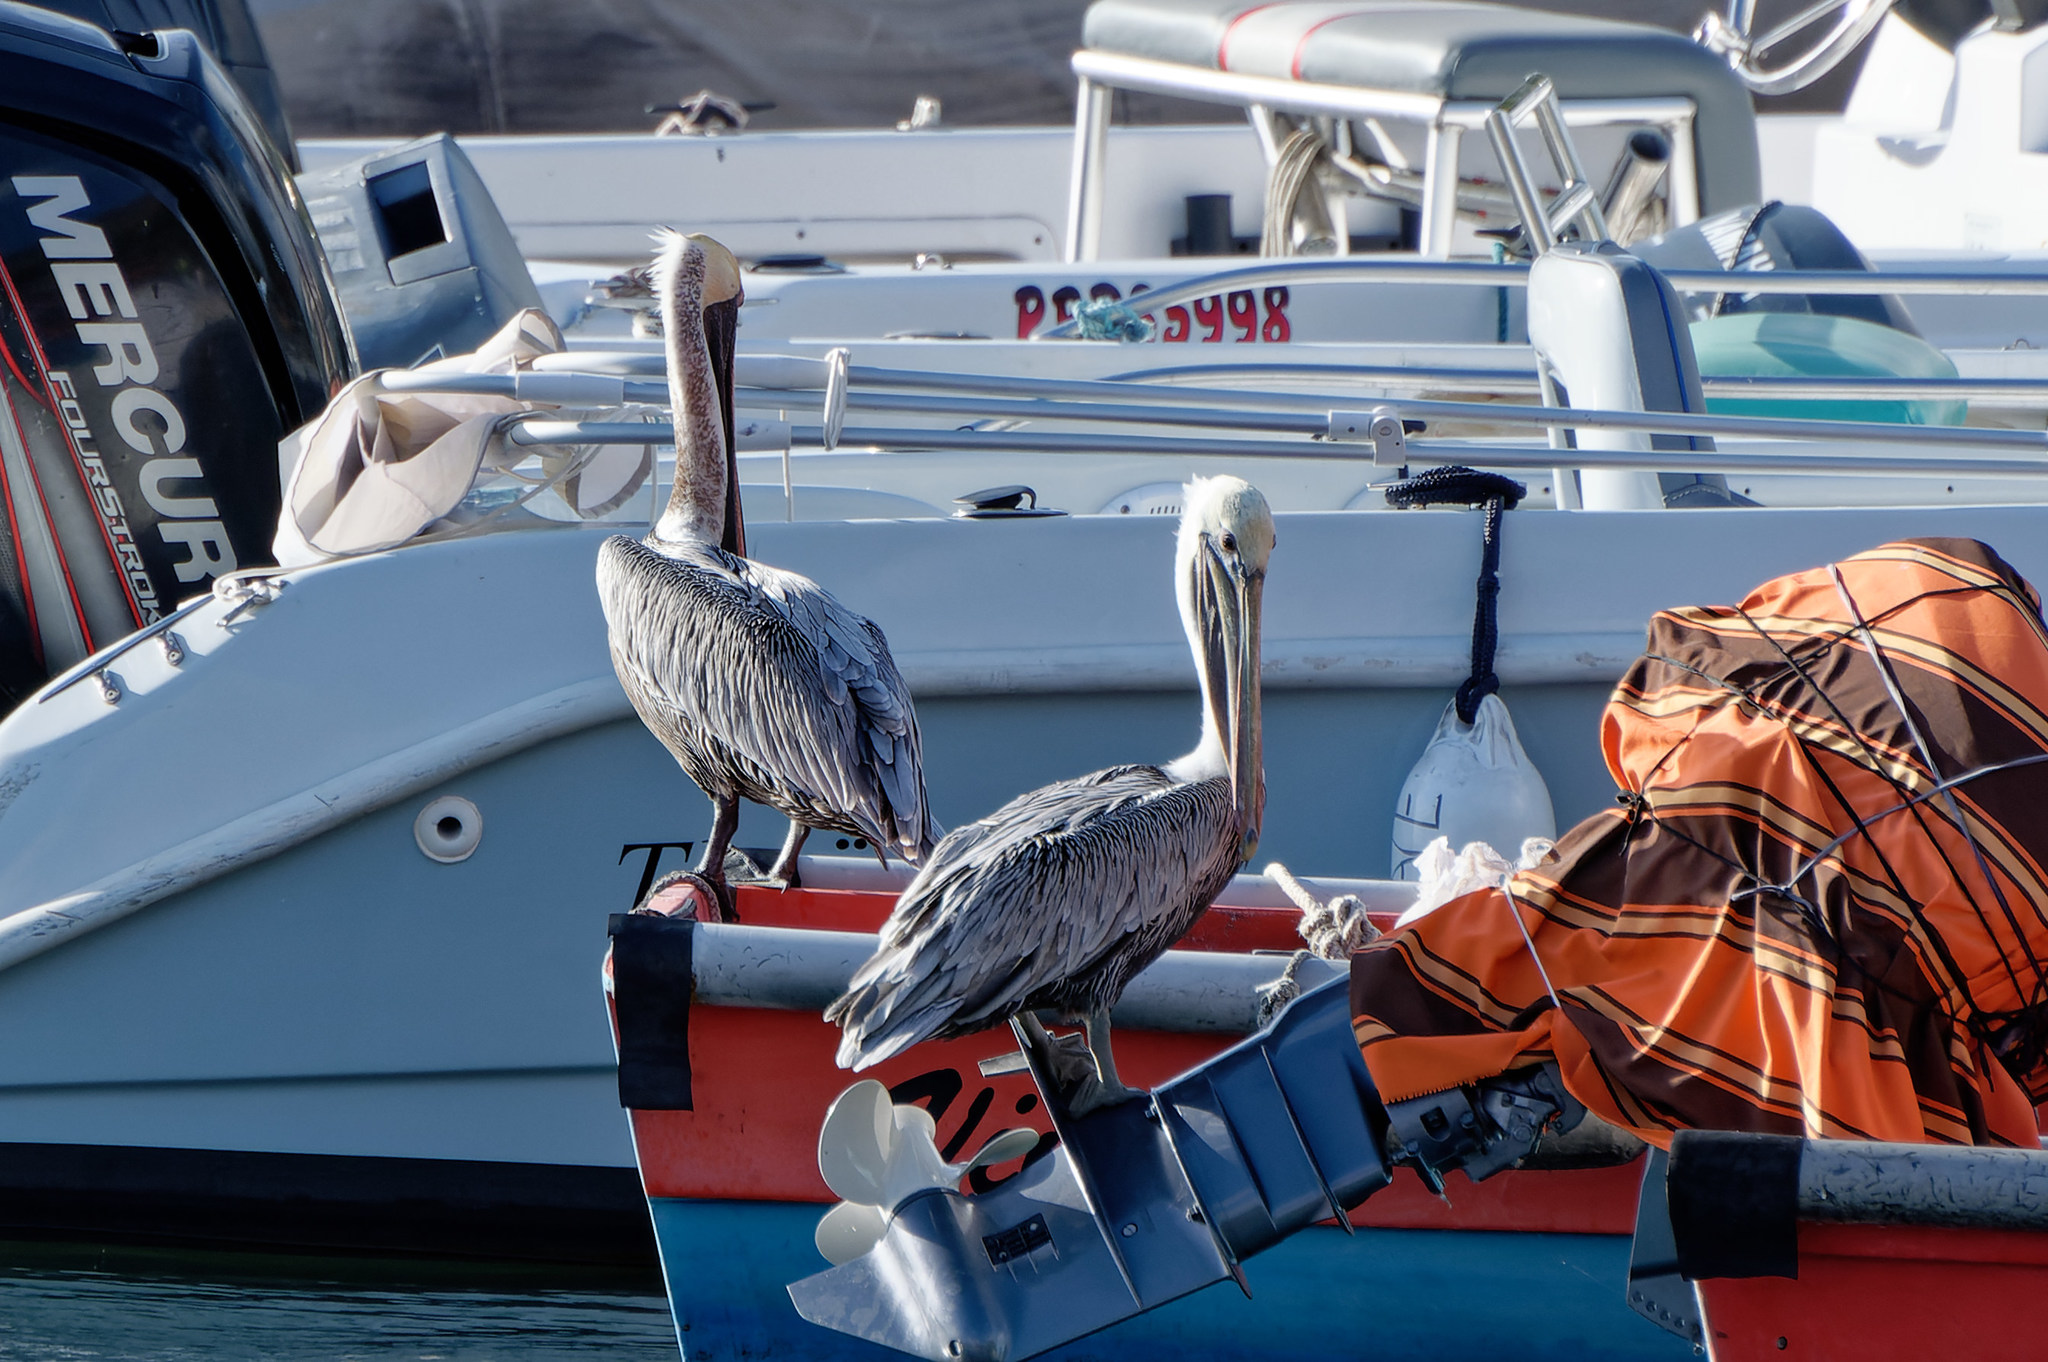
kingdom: Animalia
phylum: Chordata
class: Aves
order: Pelecaniformes
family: Pelecanidae
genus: Pelecanus
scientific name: Pelecanus occidentalis
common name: Brown pelican
